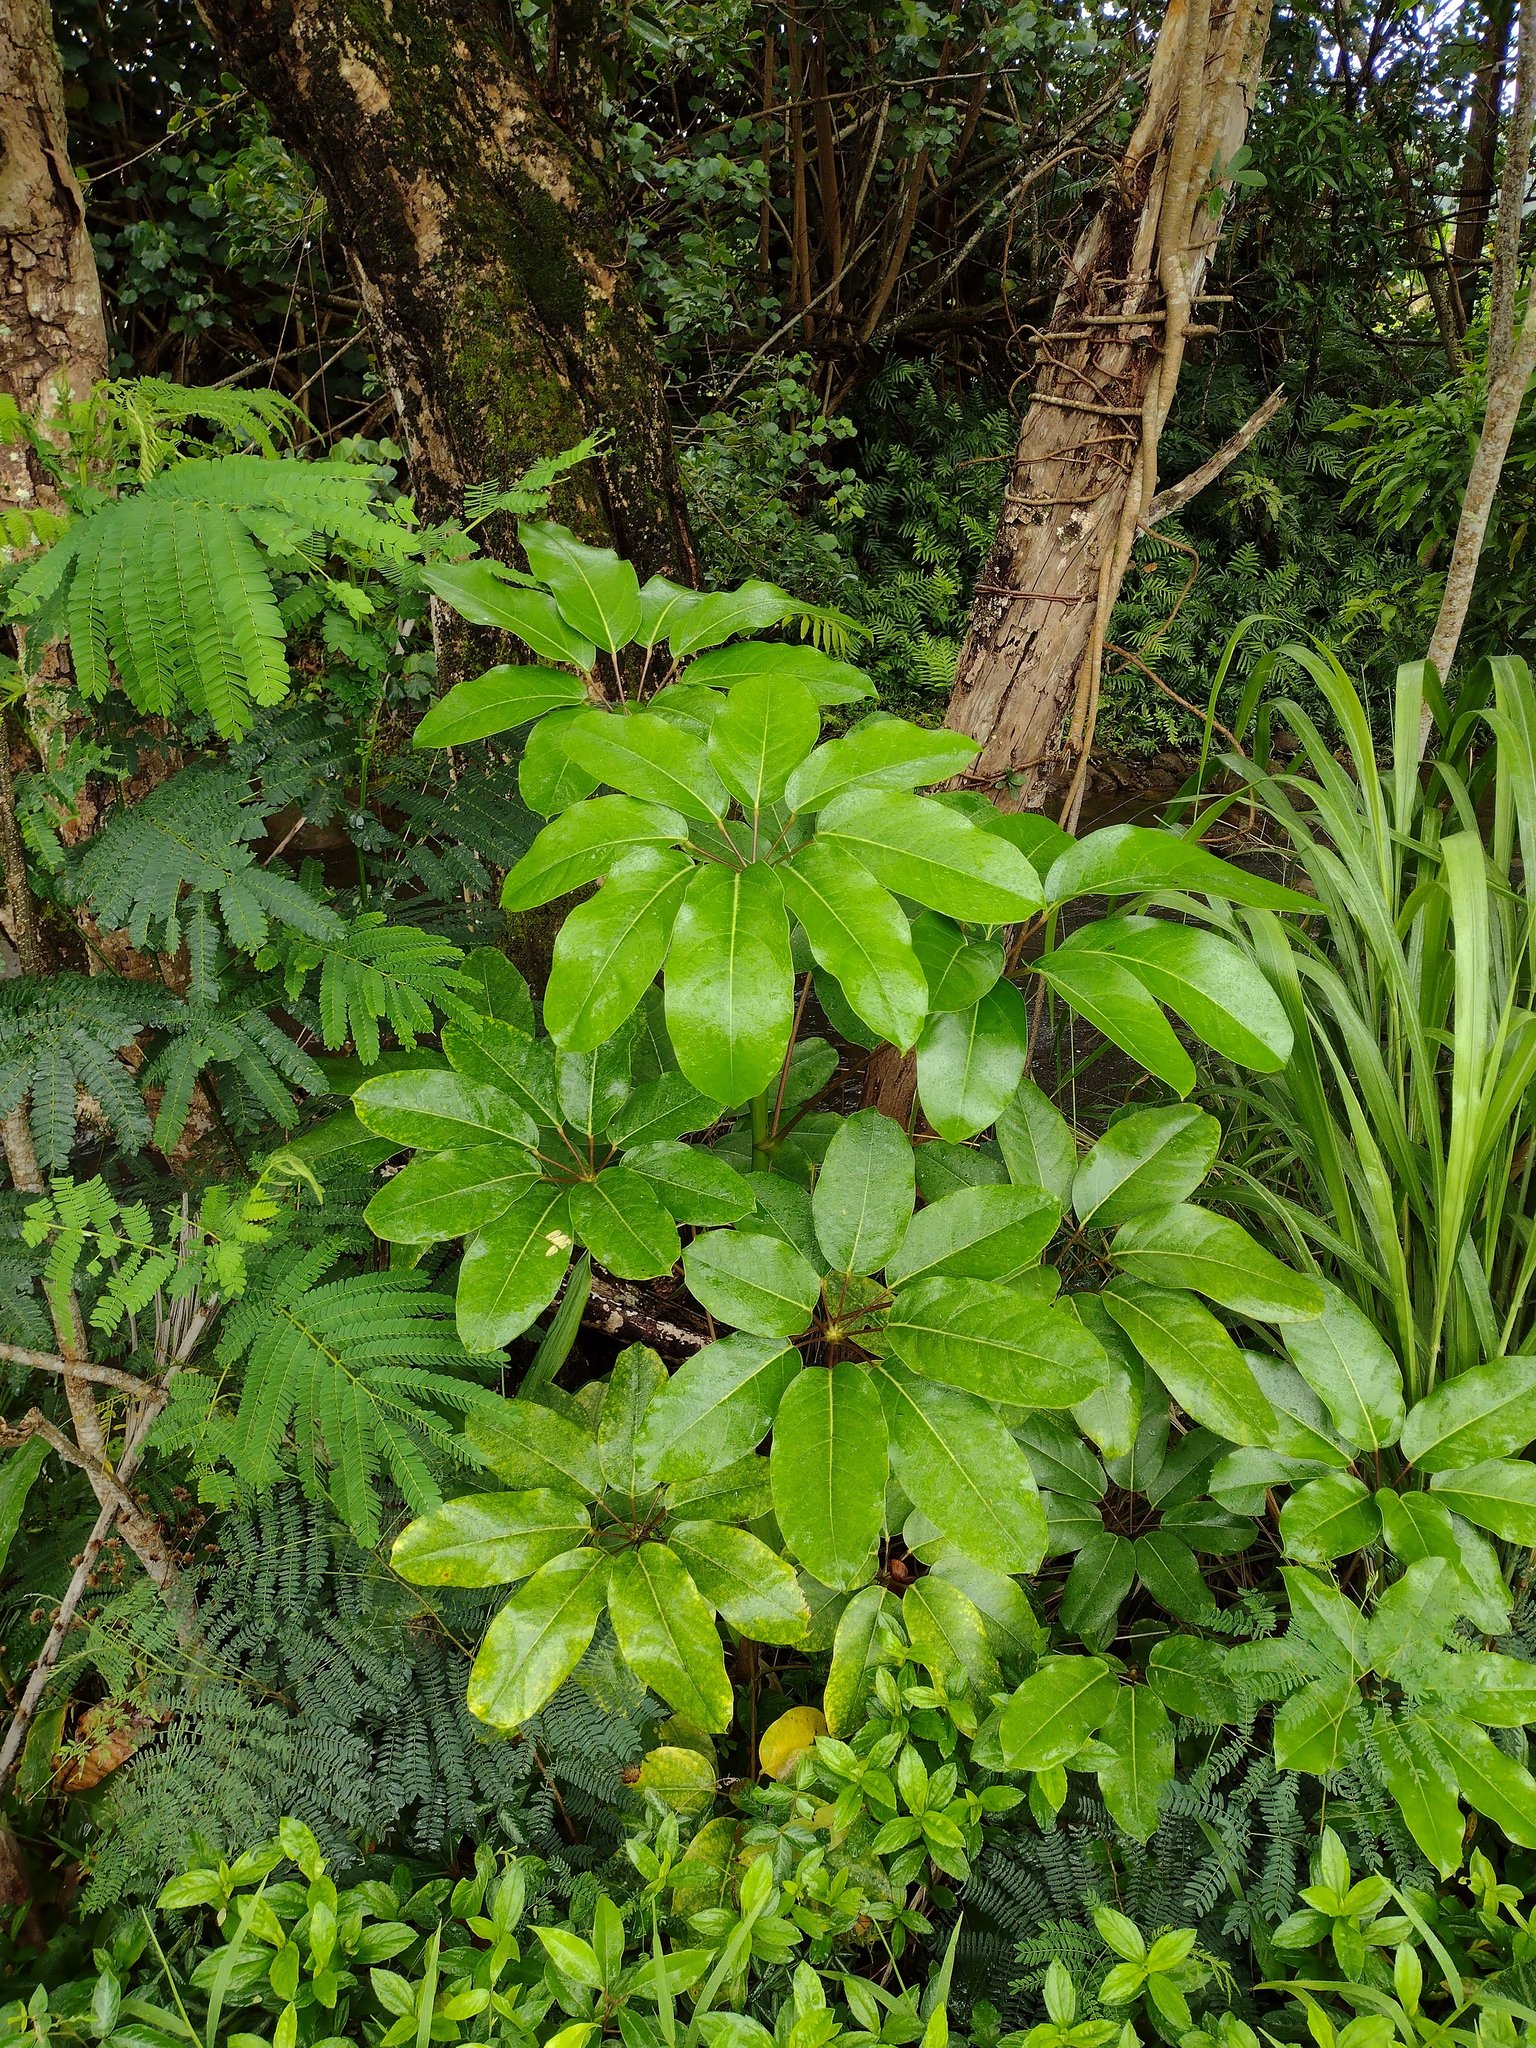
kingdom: Plantae
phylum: Tracheophyta
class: Magnoliopsida
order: Apiales
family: Araliaceae
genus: Heptapleurum
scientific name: Heptapleurum actinophyllum
